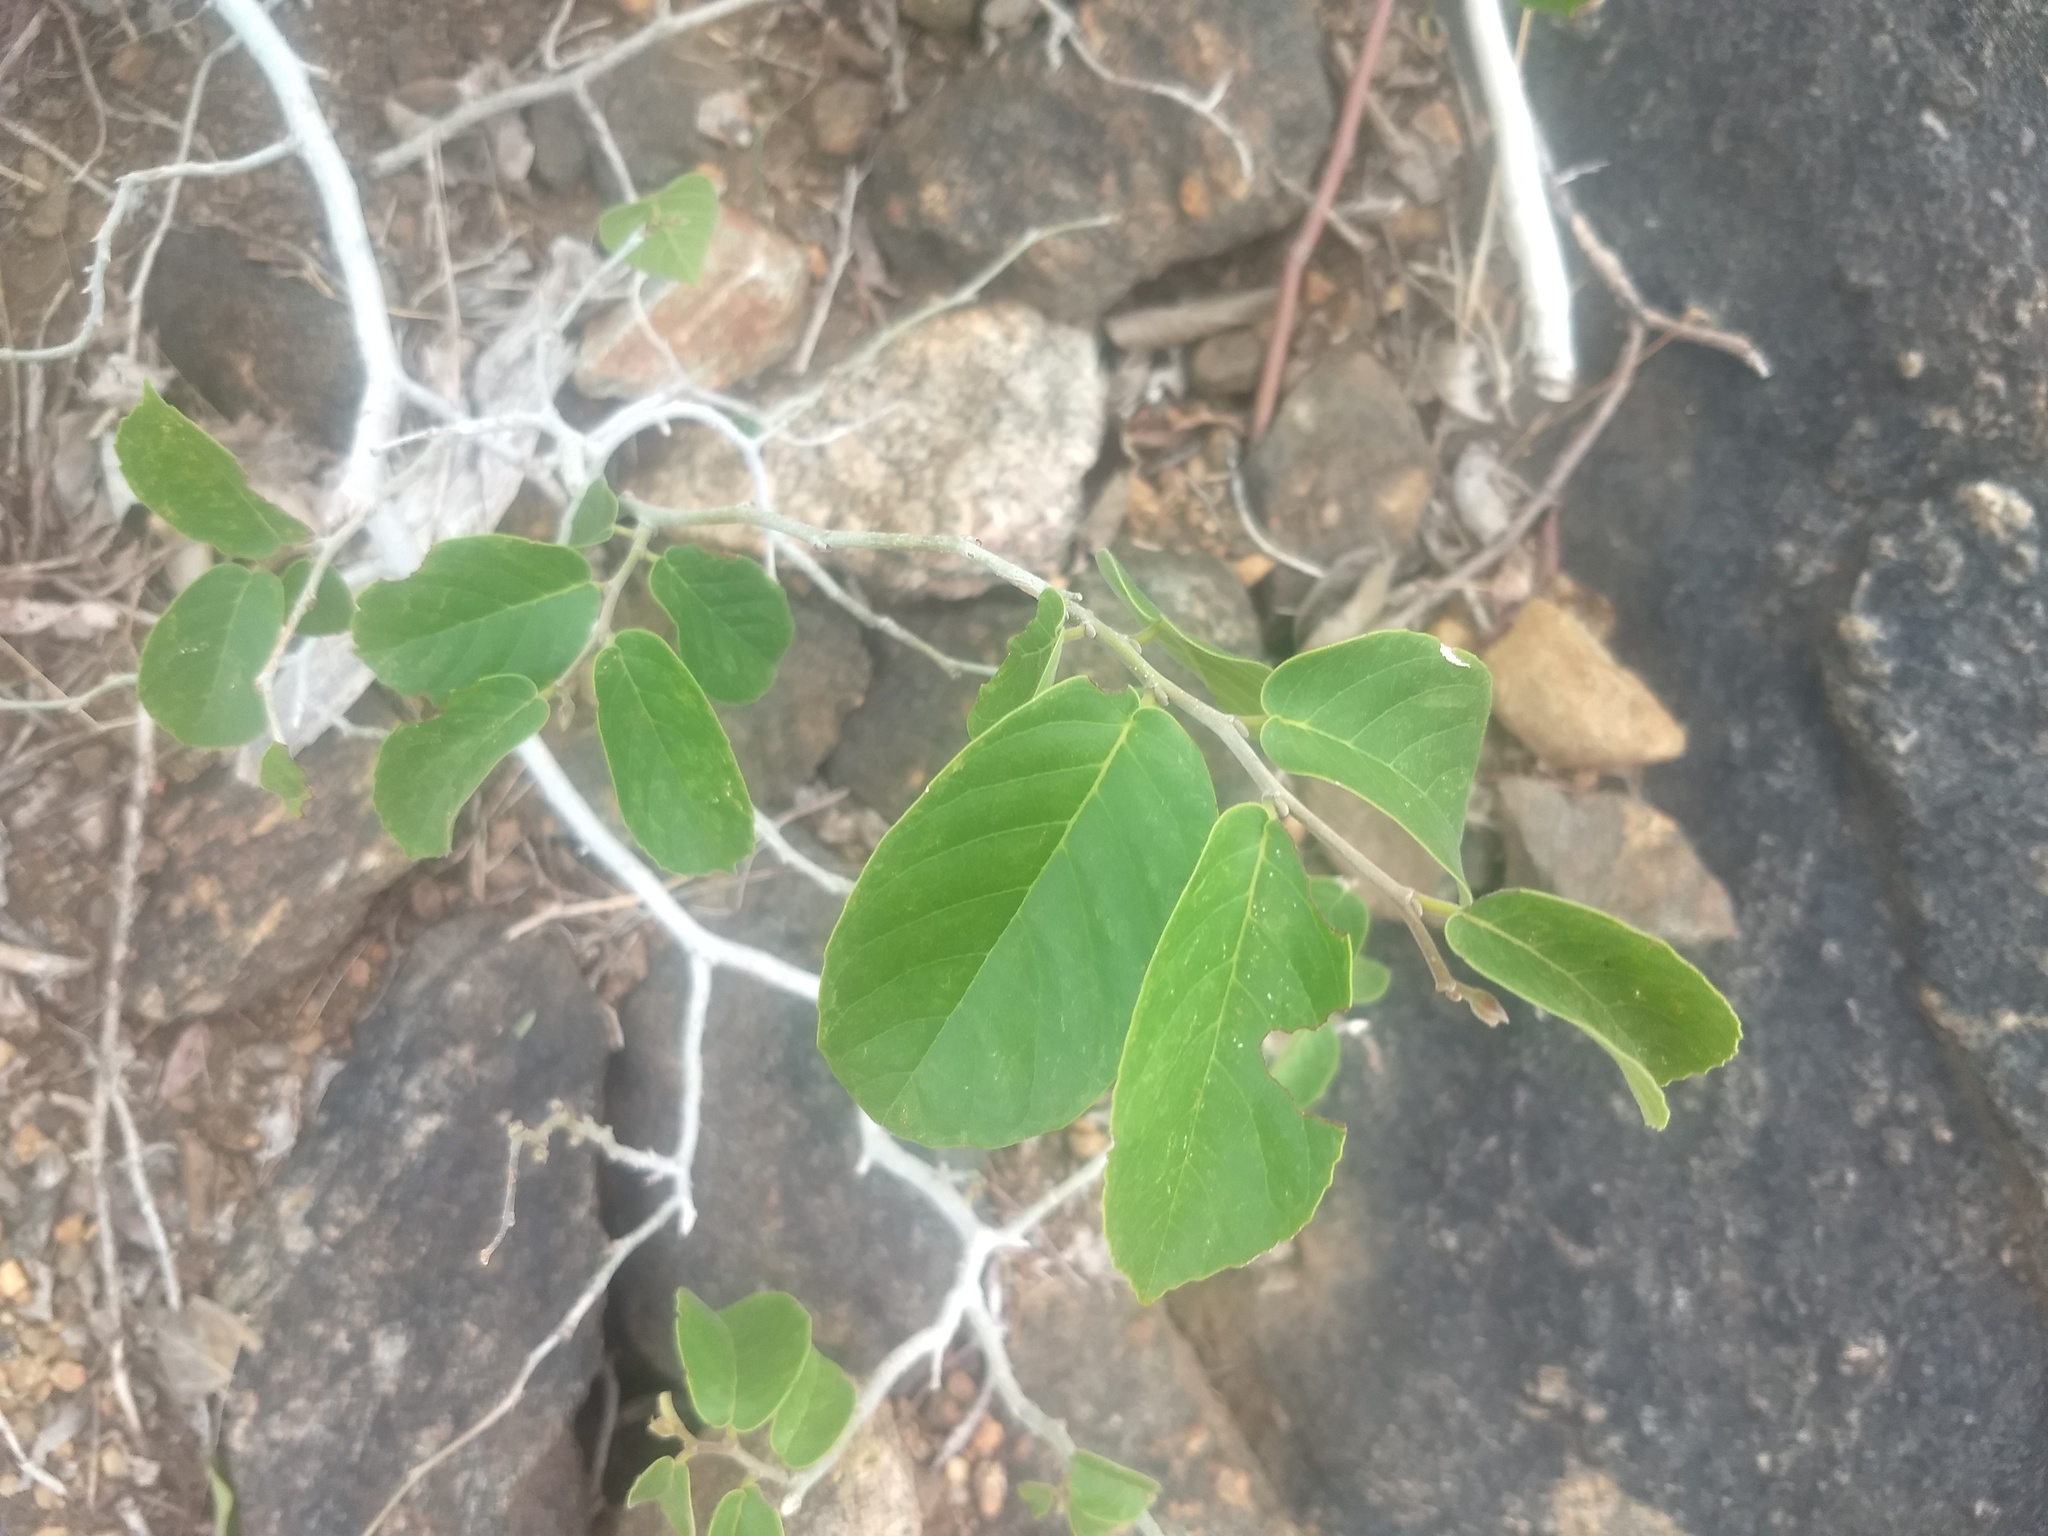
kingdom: Plantae
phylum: Tracheophyta
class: Magnoliopsida
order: Rosales
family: Ulmaceae
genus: Holoptelea
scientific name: Holoptelea integrifolia
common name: Indian-elm
